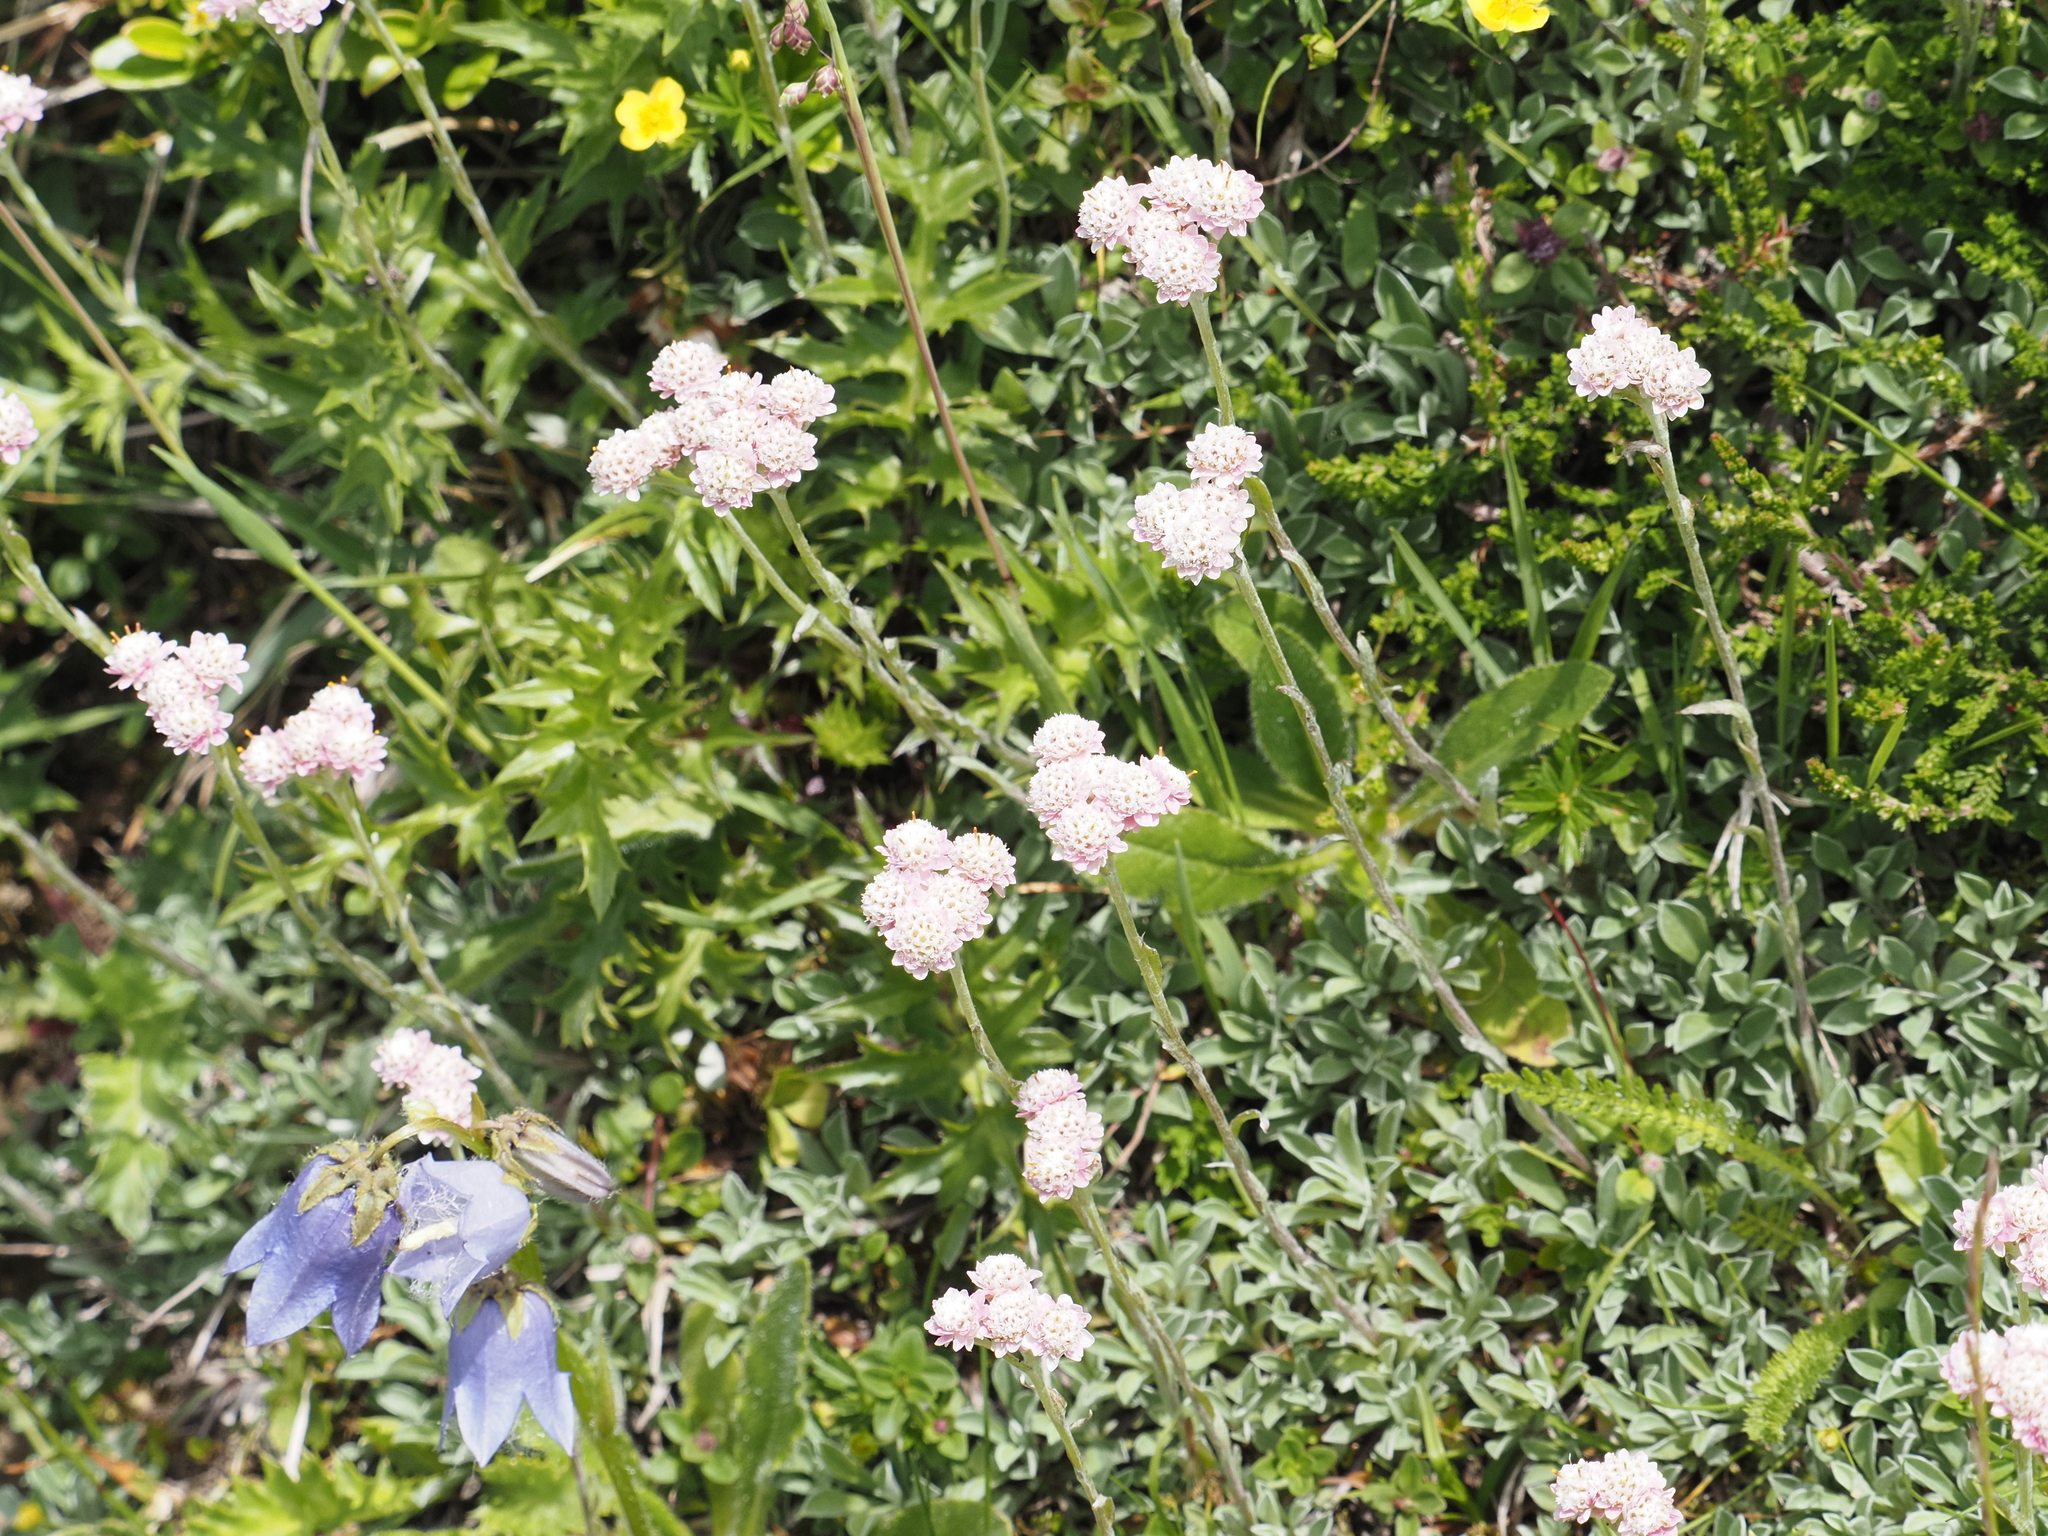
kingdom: Plantae
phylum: Tracheophyta
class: Magnoliopsida
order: Asterales
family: Asteraceae
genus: Antennaria
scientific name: Antennaria dioica
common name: Mountain everlasting
